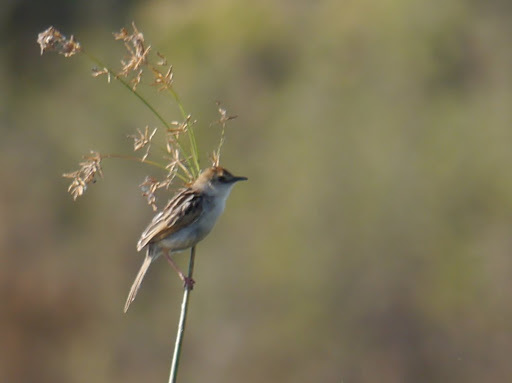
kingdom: Animalia
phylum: Chordata
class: Aves
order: Passeriformes
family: Cisticolidae
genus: Cisticola
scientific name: Cisticola luapula
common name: Luapula cisticola
